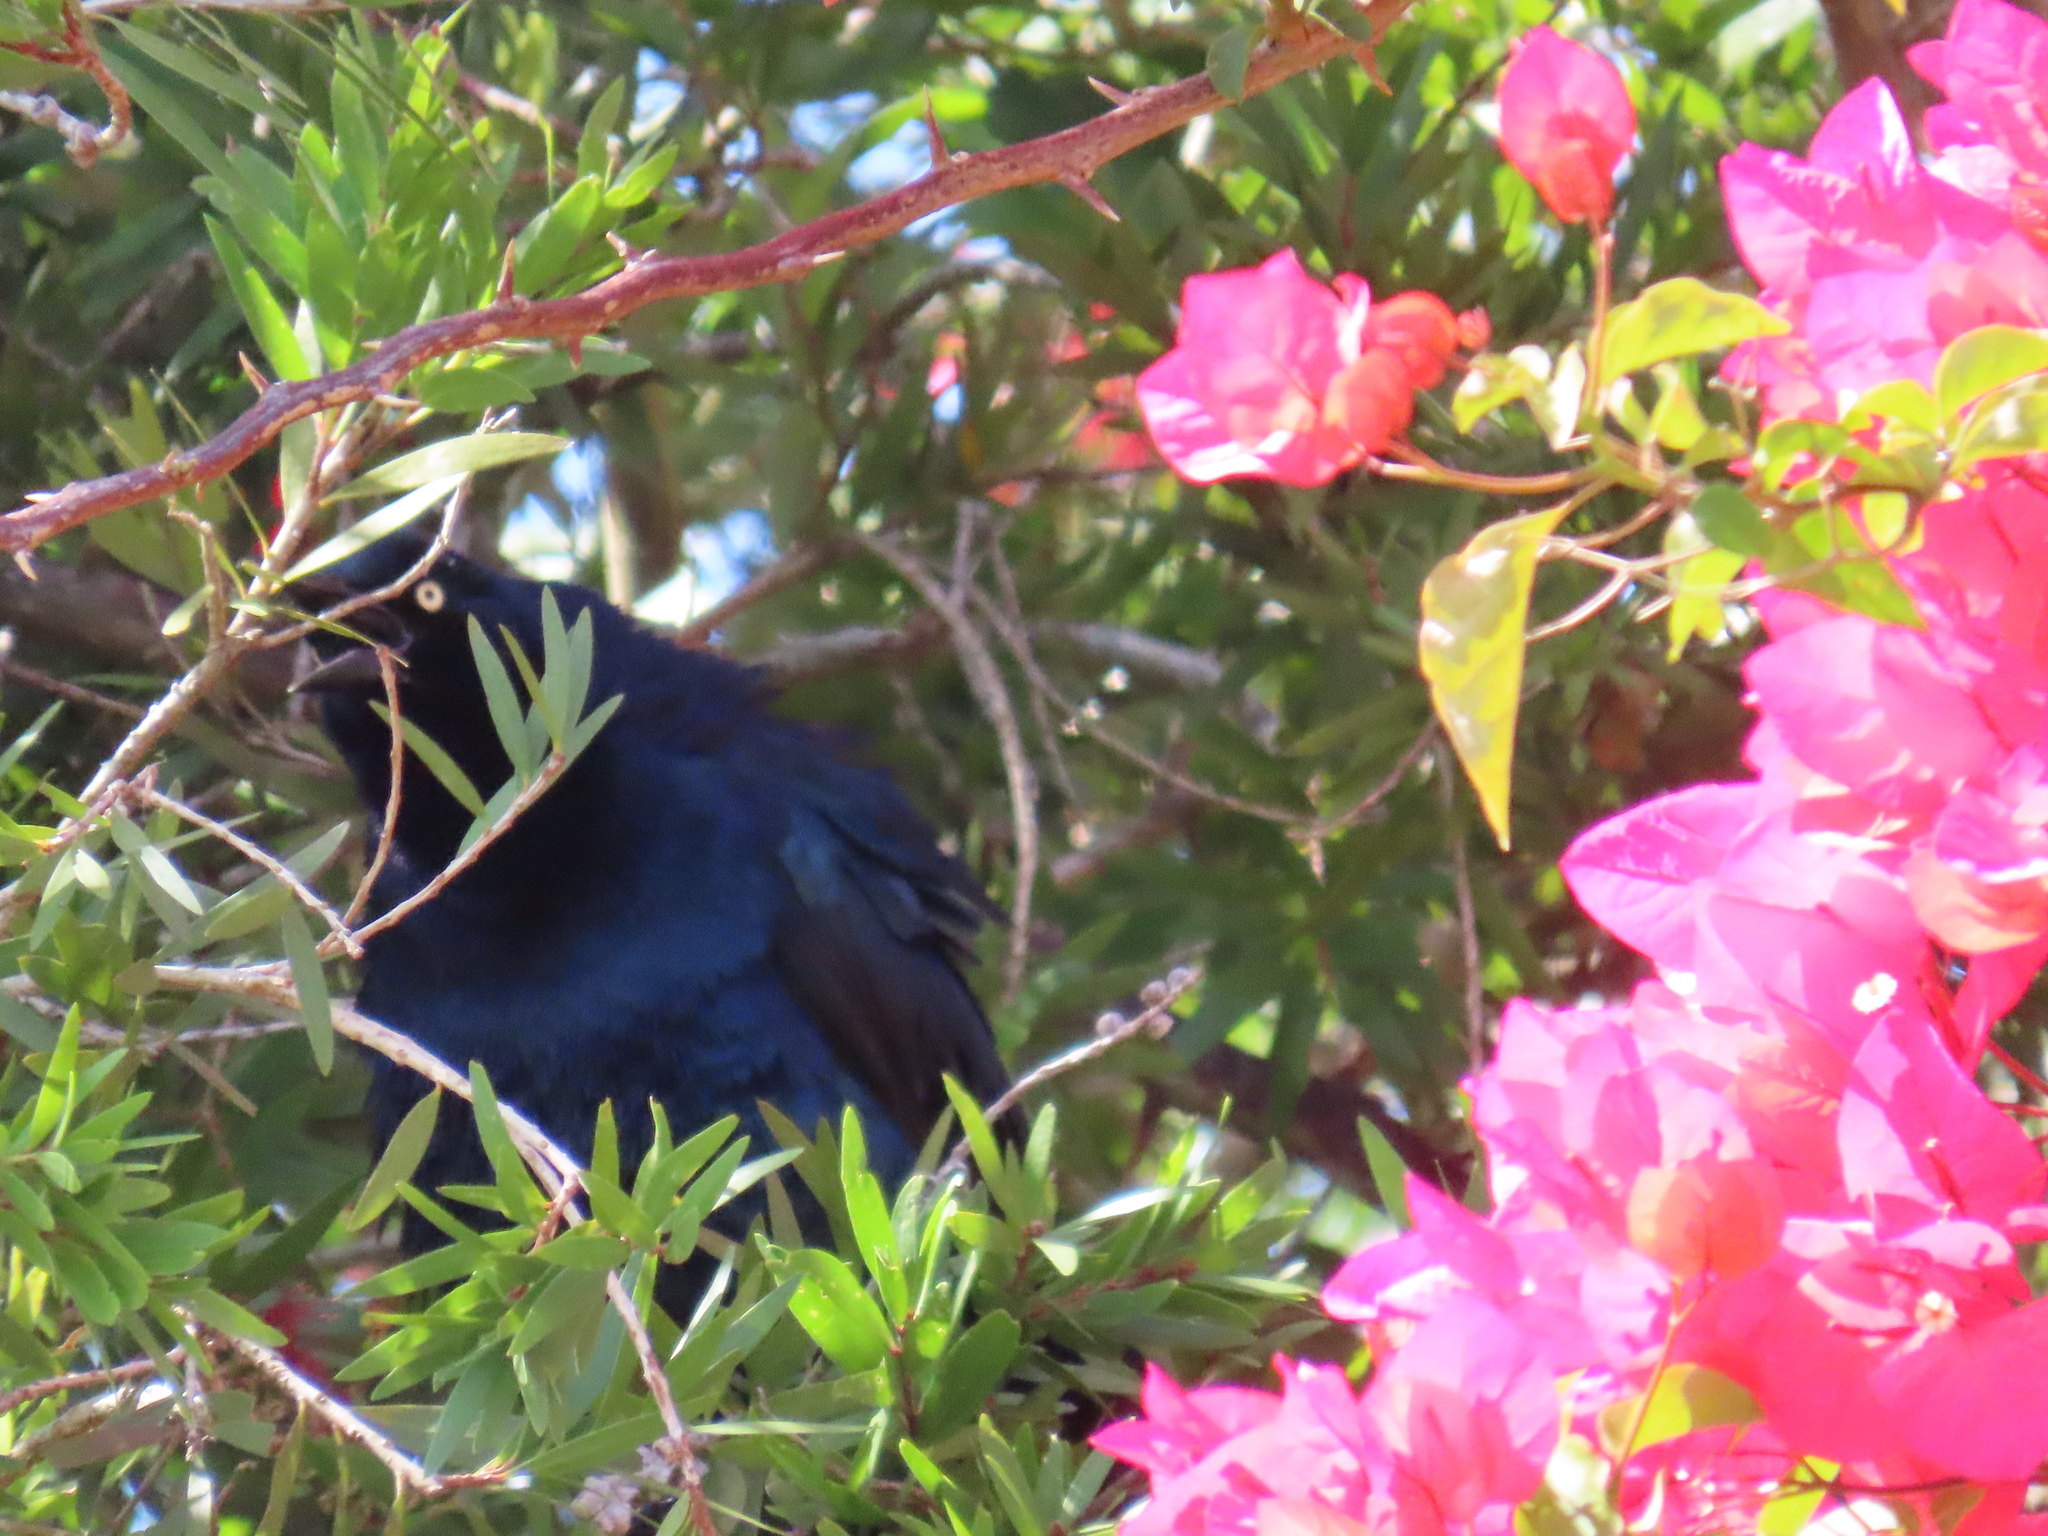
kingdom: Animalia
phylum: Chordata
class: Aves
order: Passeriformes
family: Icteridae
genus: Quiscalus
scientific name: Quiscalus mexicanus
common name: Great-tailed grackle
